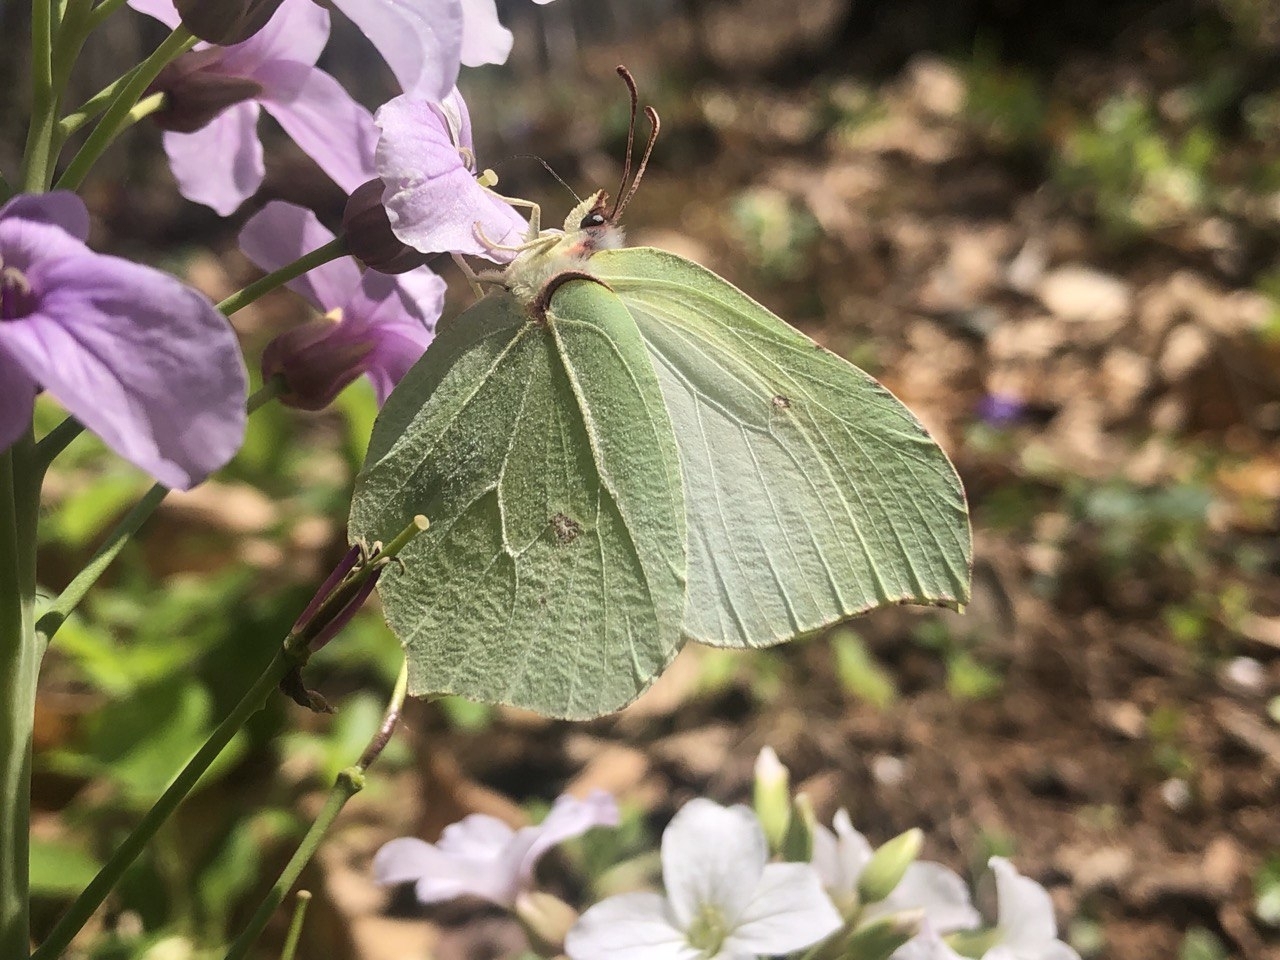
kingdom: Animalia
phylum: Arthropoda
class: Insecta
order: Lepidoptera
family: Pieridae
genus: Gonepteryx
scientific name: Gonepteryx rhamni
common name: Brimstone
